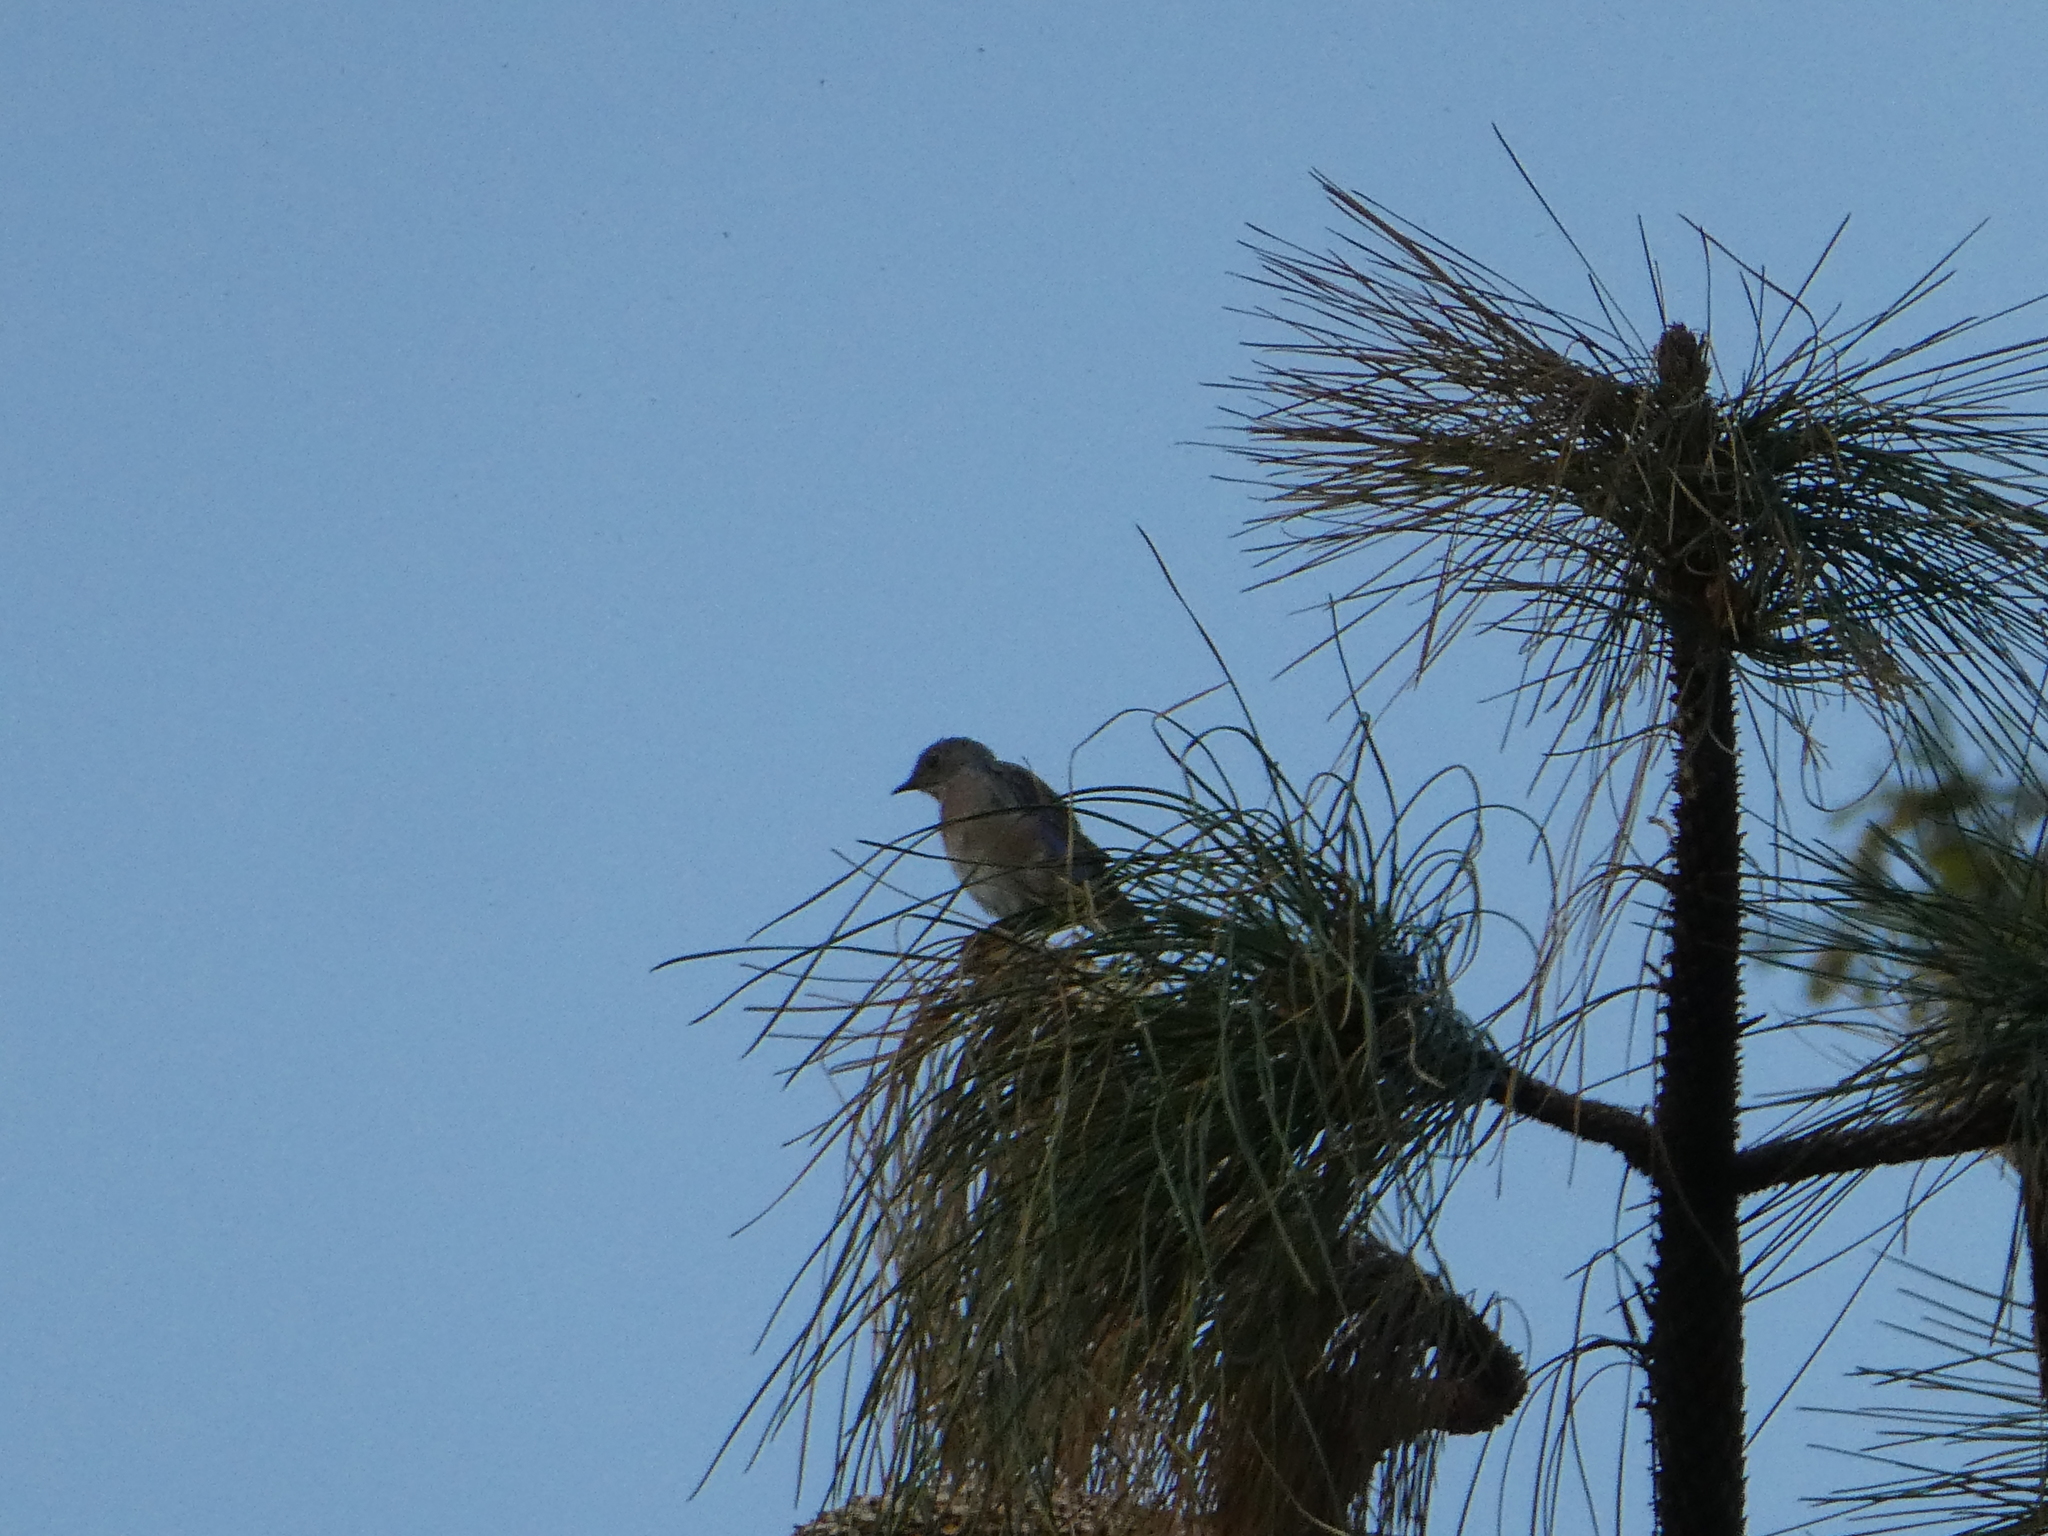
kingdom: Animalia
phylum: Chordata
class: Aves
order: Passeriformes
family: Turdidae
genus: Sialia
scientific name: Sialia mexicana
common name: Western bluebird
